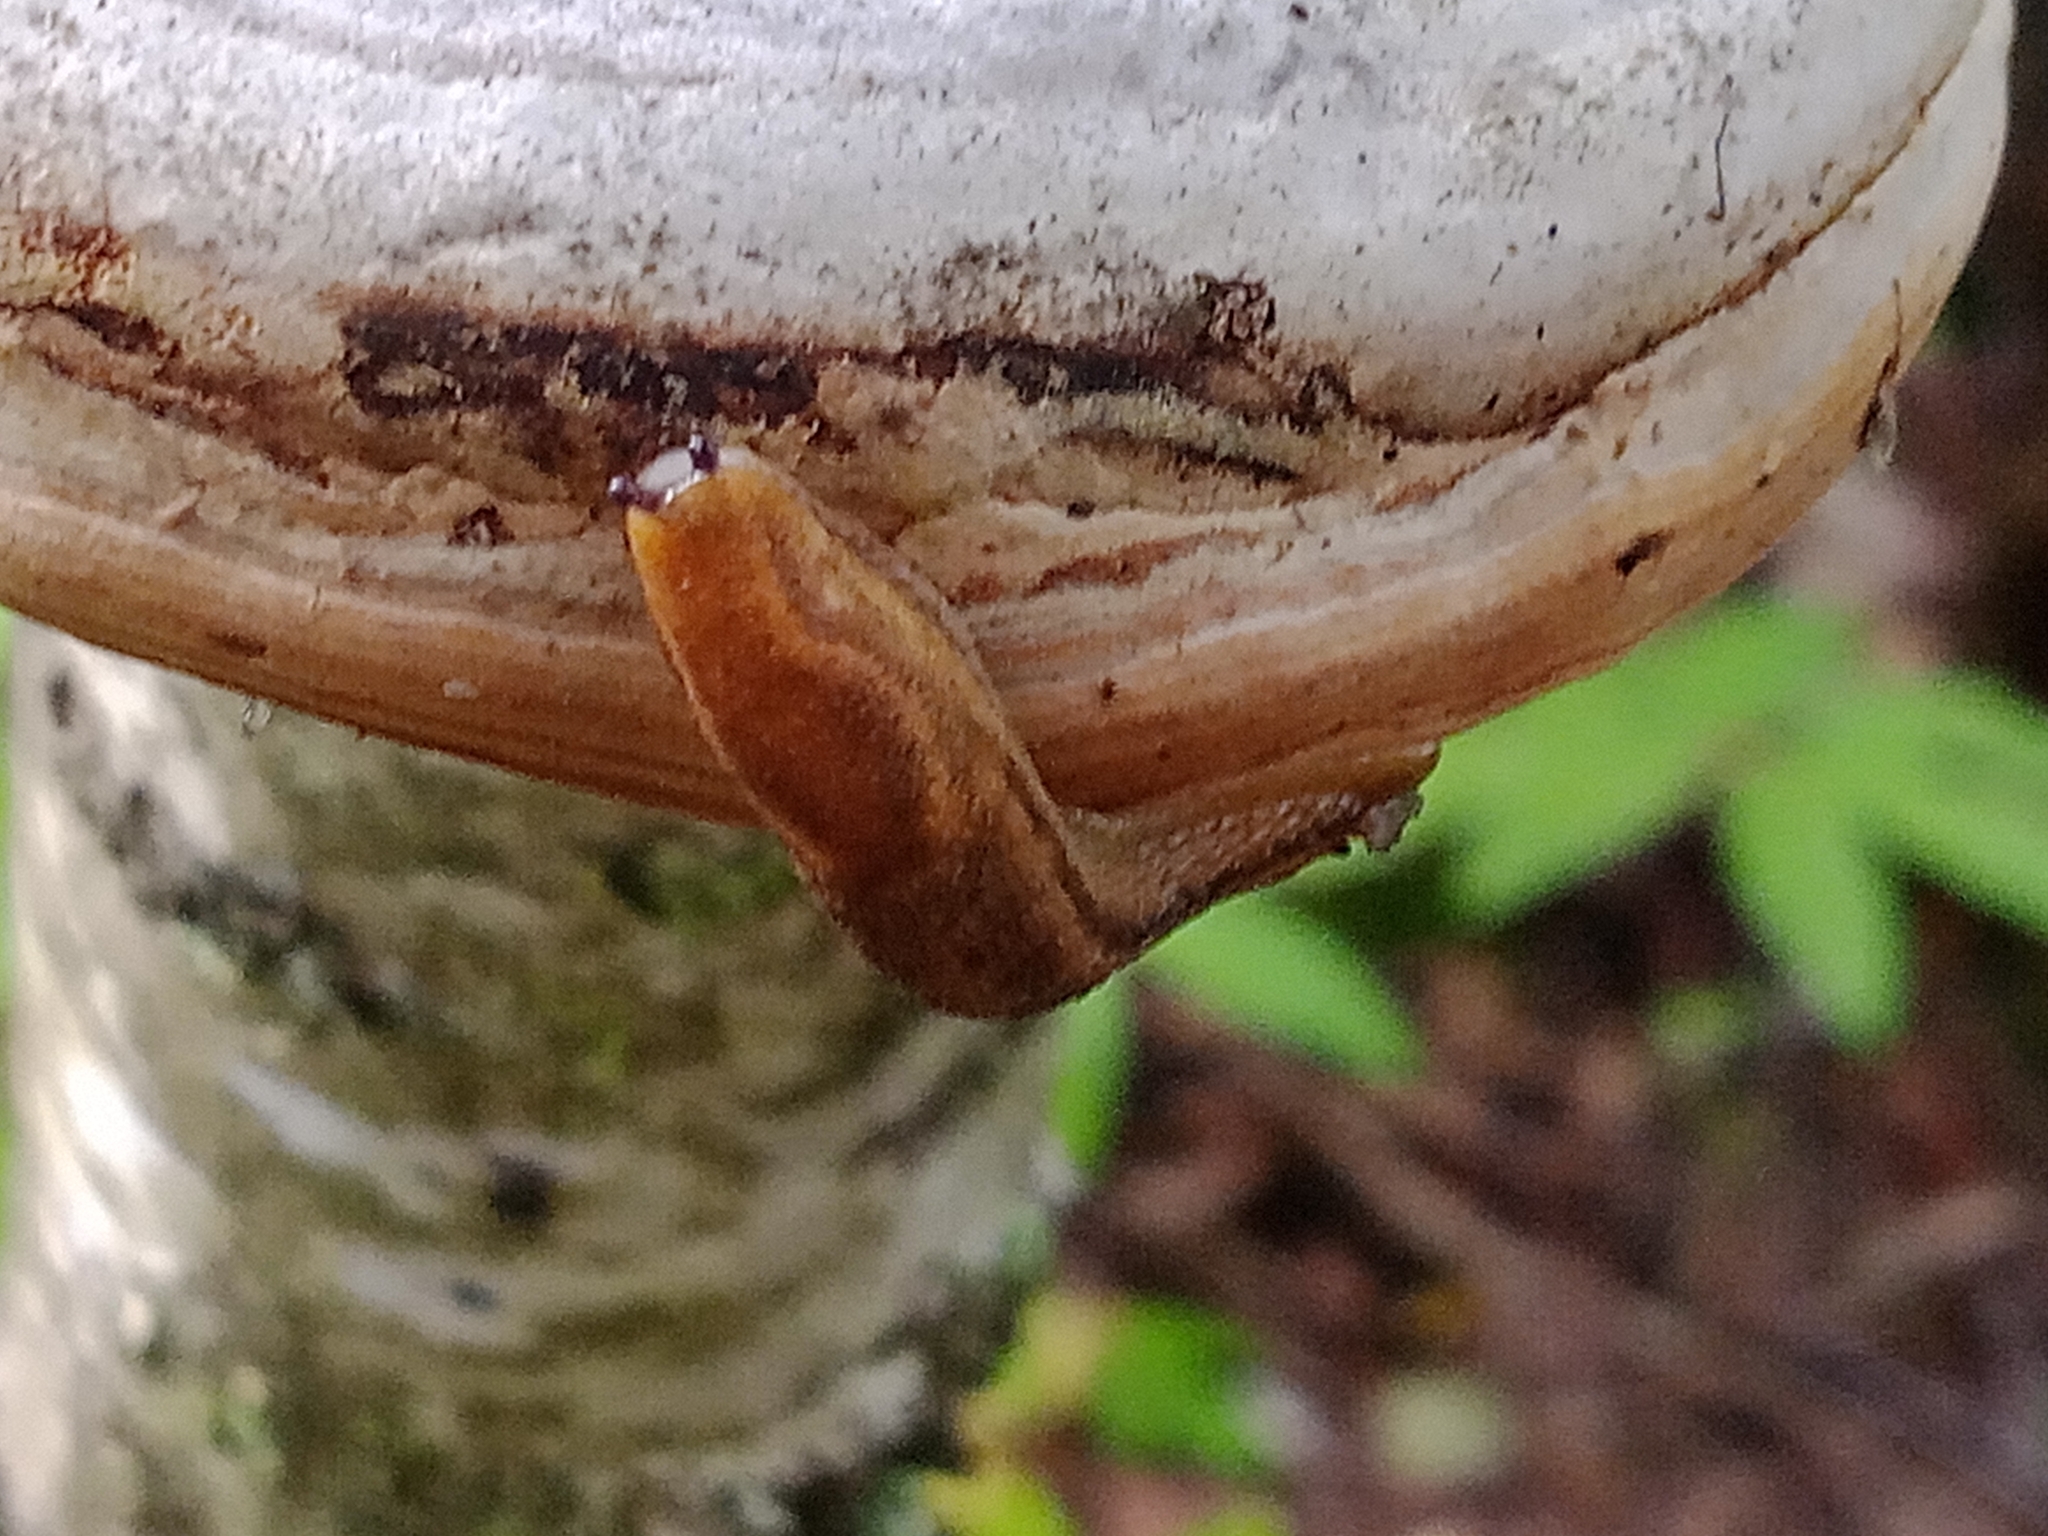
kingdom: Animalia
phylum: Mollusca
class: Gastropoda
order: Stylommatophora
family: Arionidae
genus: Arion
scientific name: Arion fuscus
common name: Northern dusky slug
